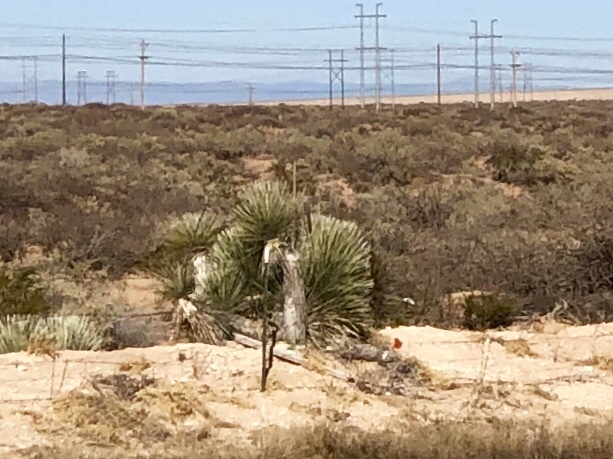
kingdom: Plantae
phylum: Tracheophyta
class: Liliopsida
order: Asparagales
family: Asparagaceae
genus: Yucca
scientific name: Yucca elata
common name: Palmella
